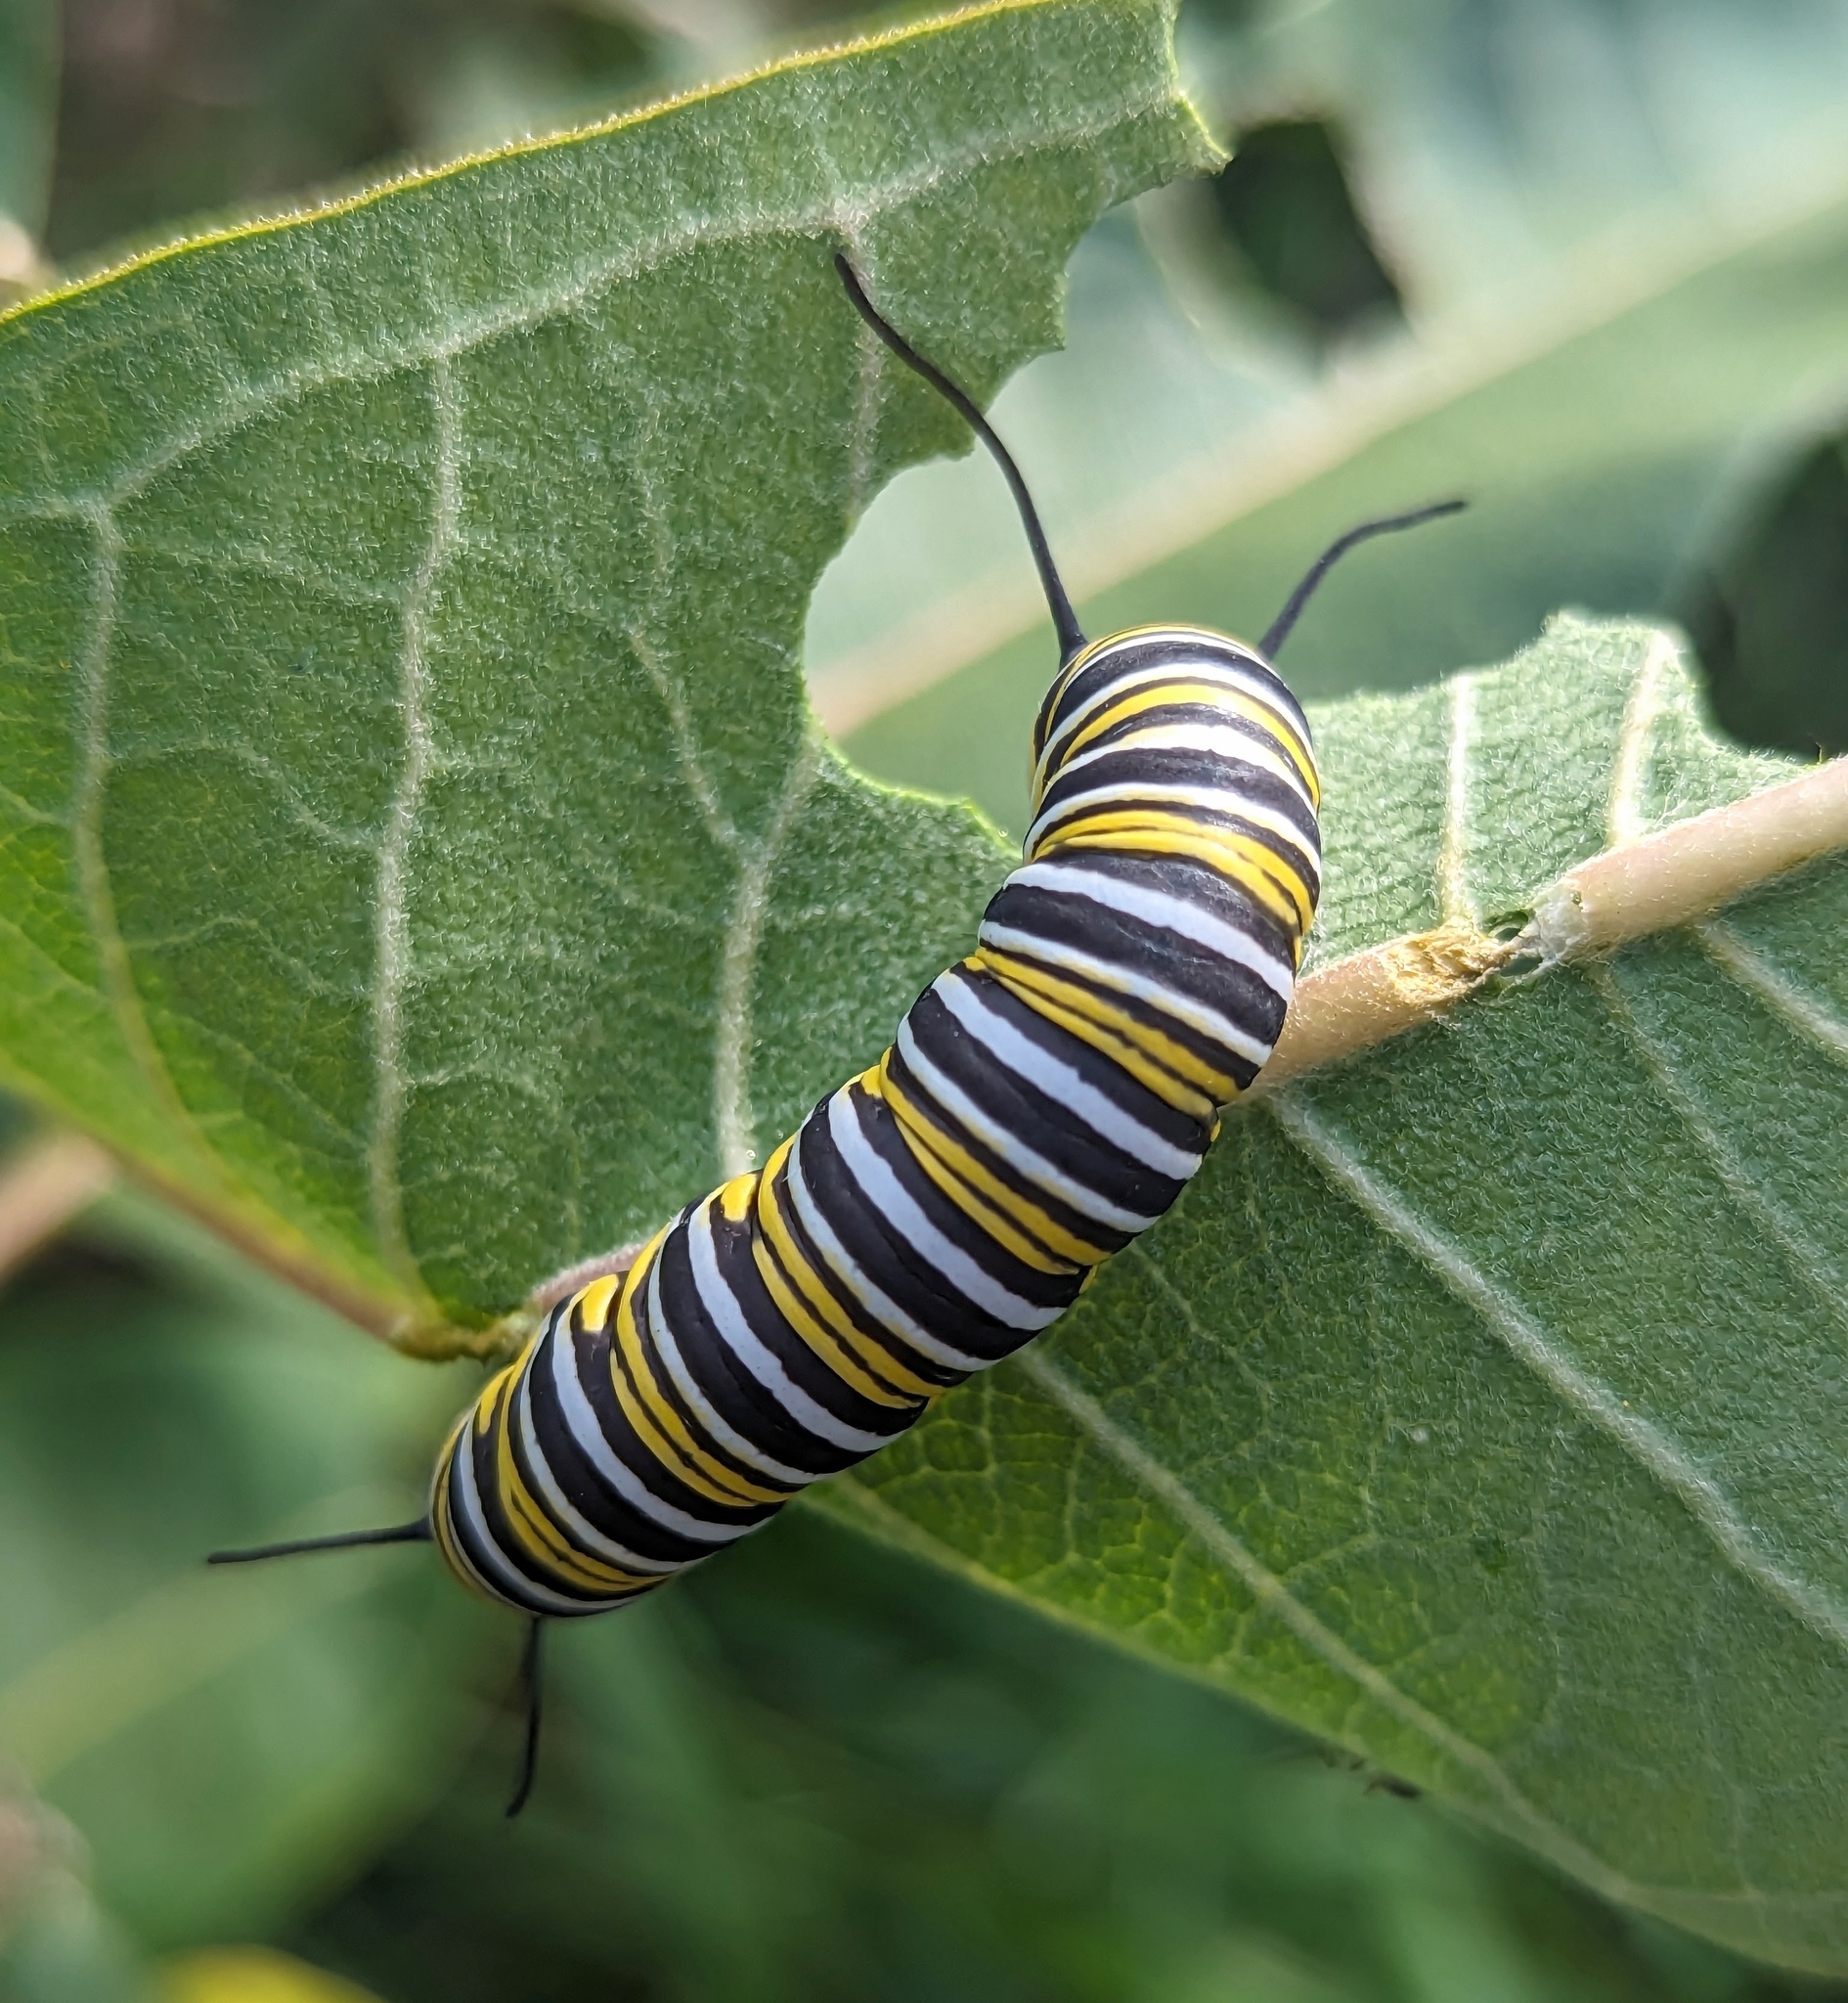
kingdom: Animalia
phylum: Arthropoda
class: Insecta
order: Lepidoptera
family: Nymphalidae
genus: Danaus
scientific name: Danaus plexippus
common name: Monarch
